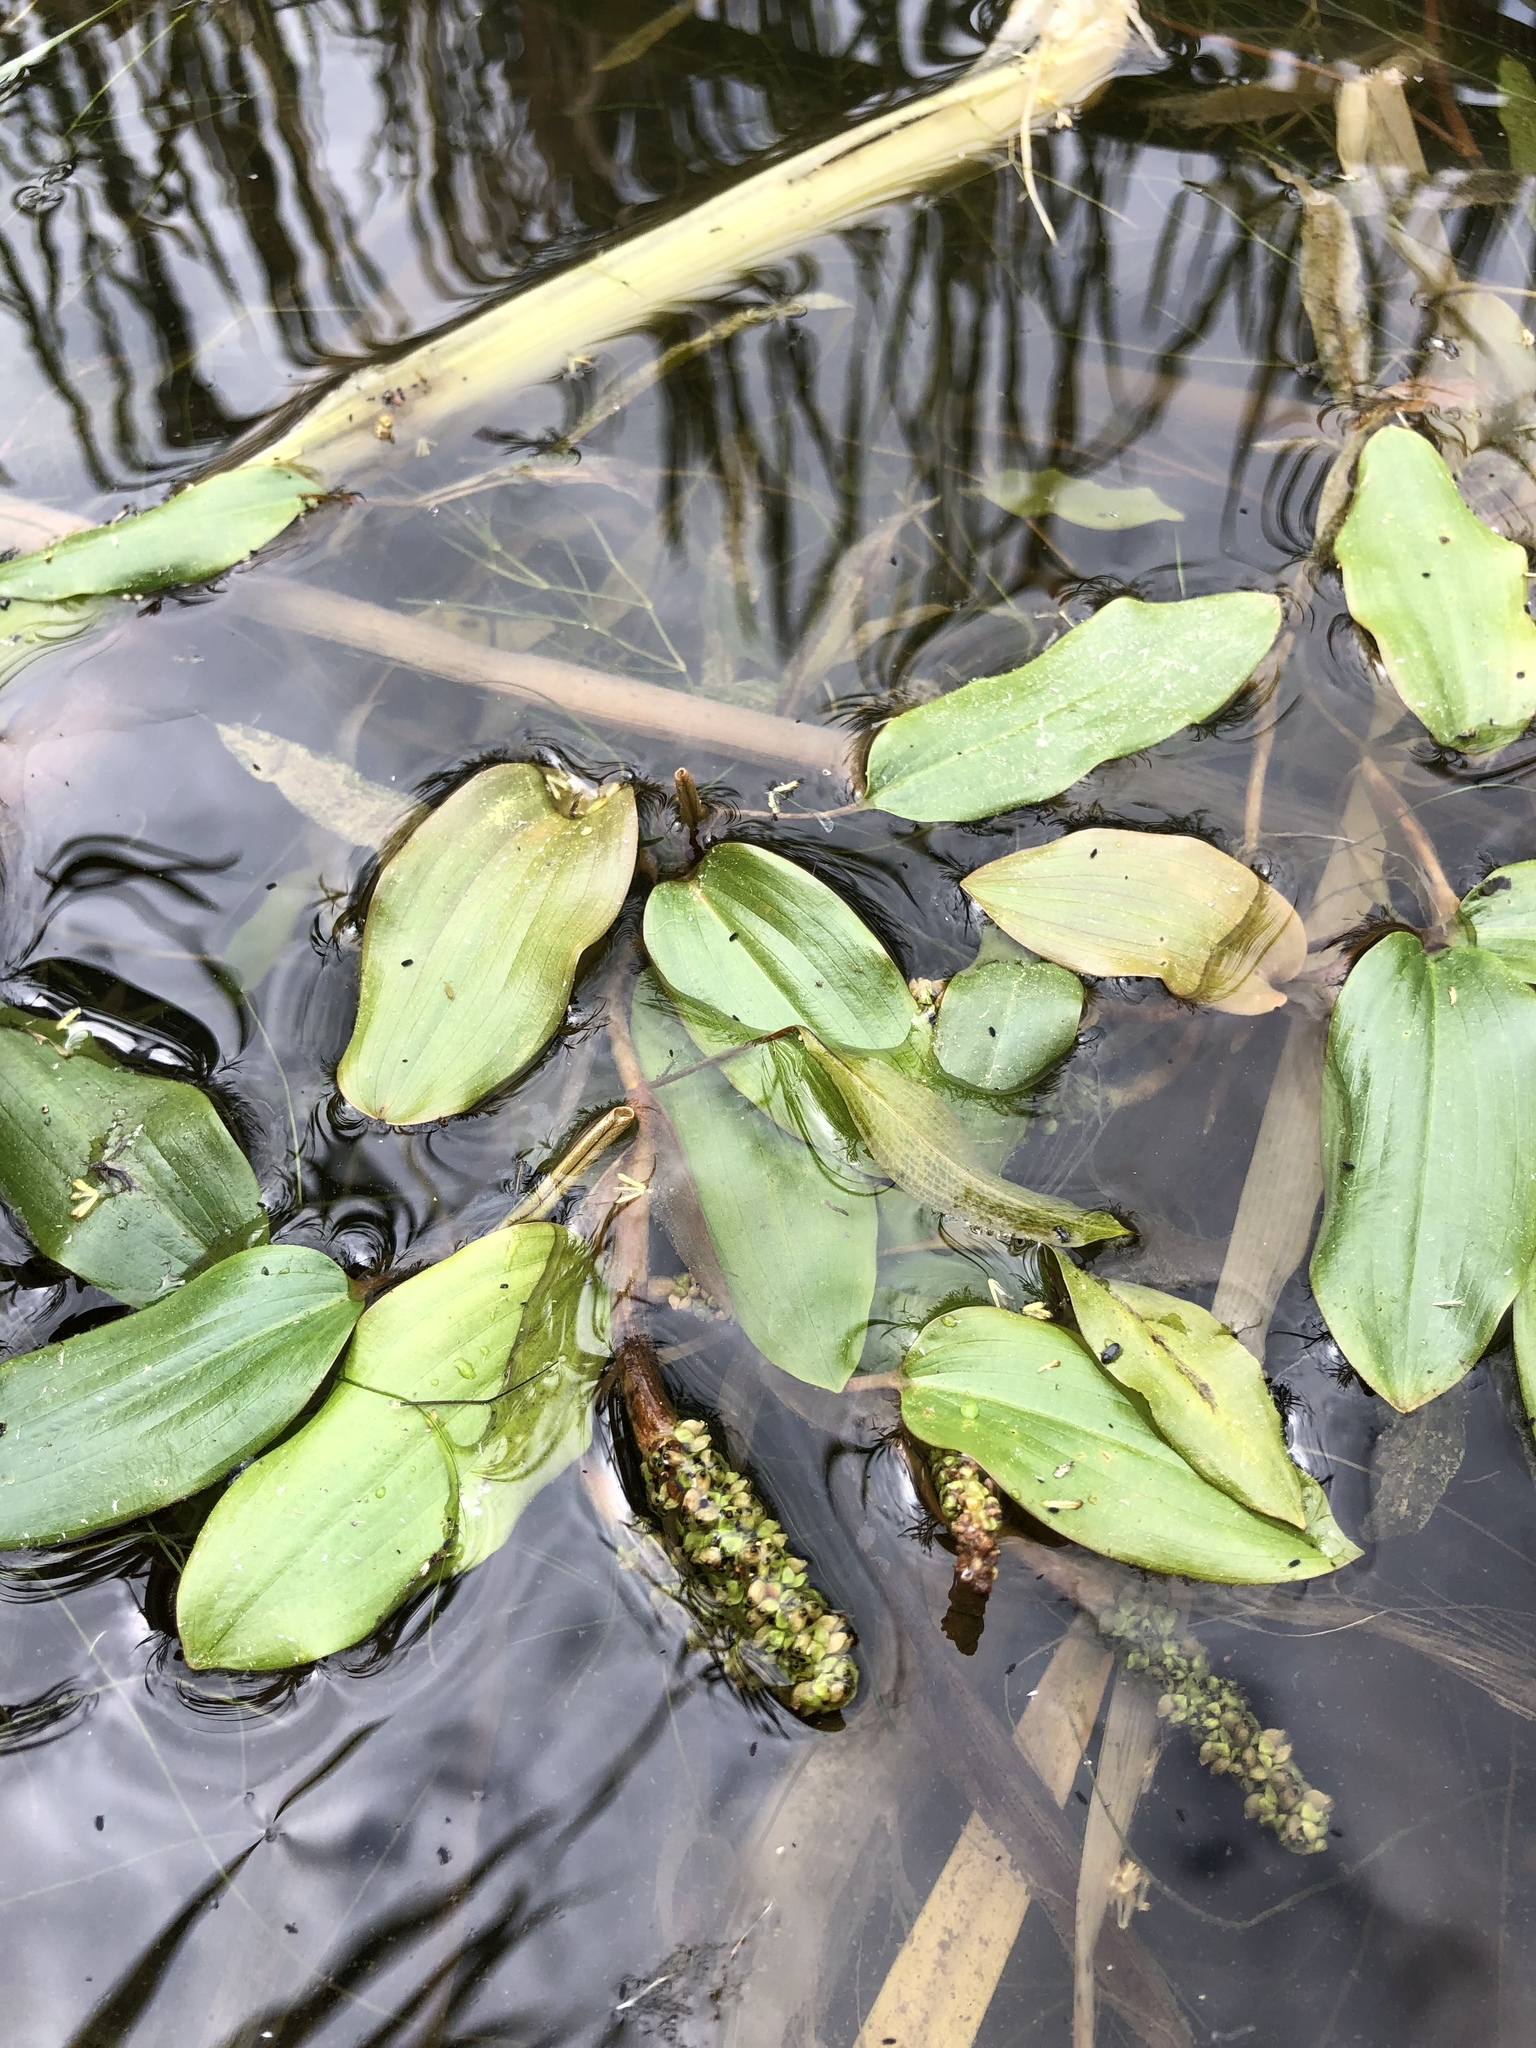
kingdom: Plantae
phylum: Tracheophyta
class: Liliopsida
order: Alismatales
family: Potamogetonaceae
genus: Potamogeton
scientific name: Potamogeton gramineus
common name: Various-leaved pondweed
